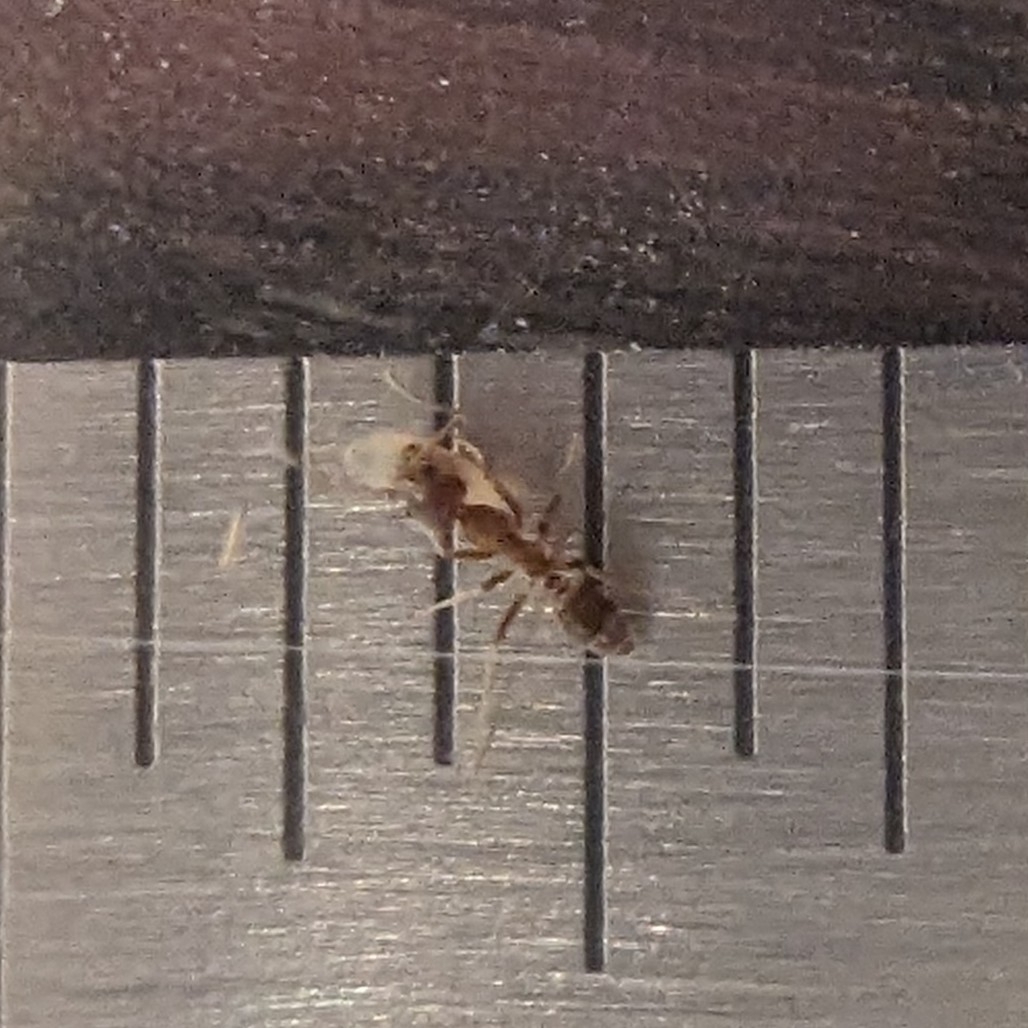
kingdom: Animalia
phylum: Arthropoda
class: Insecta
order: Hymenoptera
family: Formicidae
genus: Linepithema
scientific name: Linepithema humile
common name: Argentine ant
